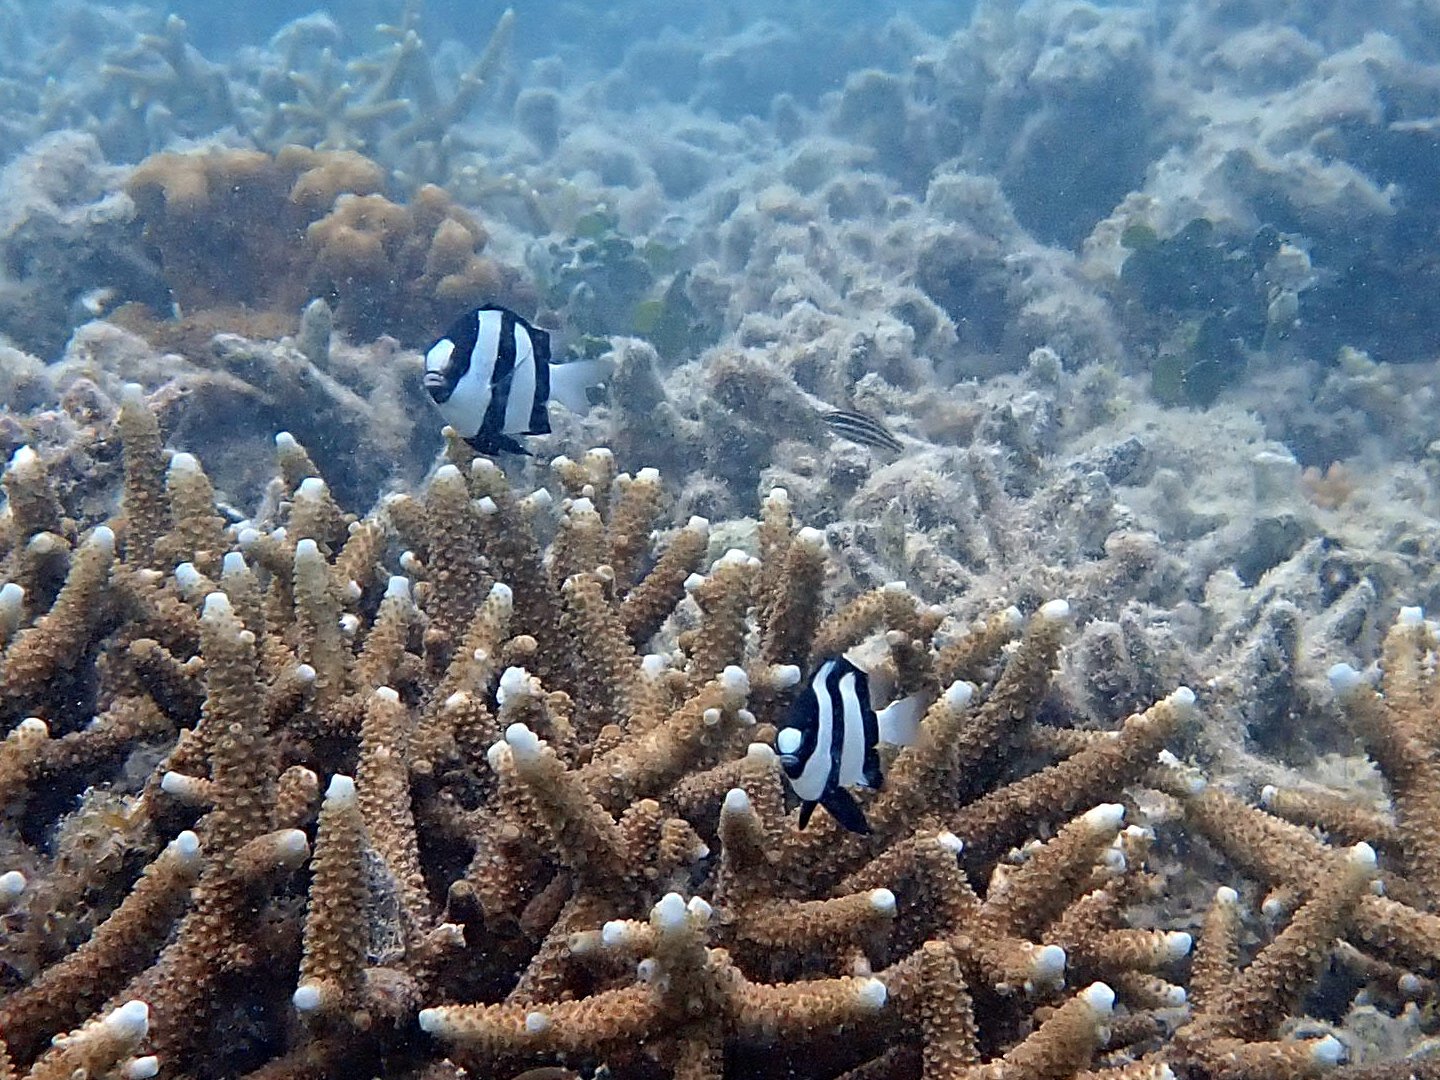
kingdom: Animalia
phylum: Chordata
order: Perciformes
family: Pomacentridae
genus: Dascyllus
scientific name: Dascyllus aruanus
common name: Humbug dascyllus
